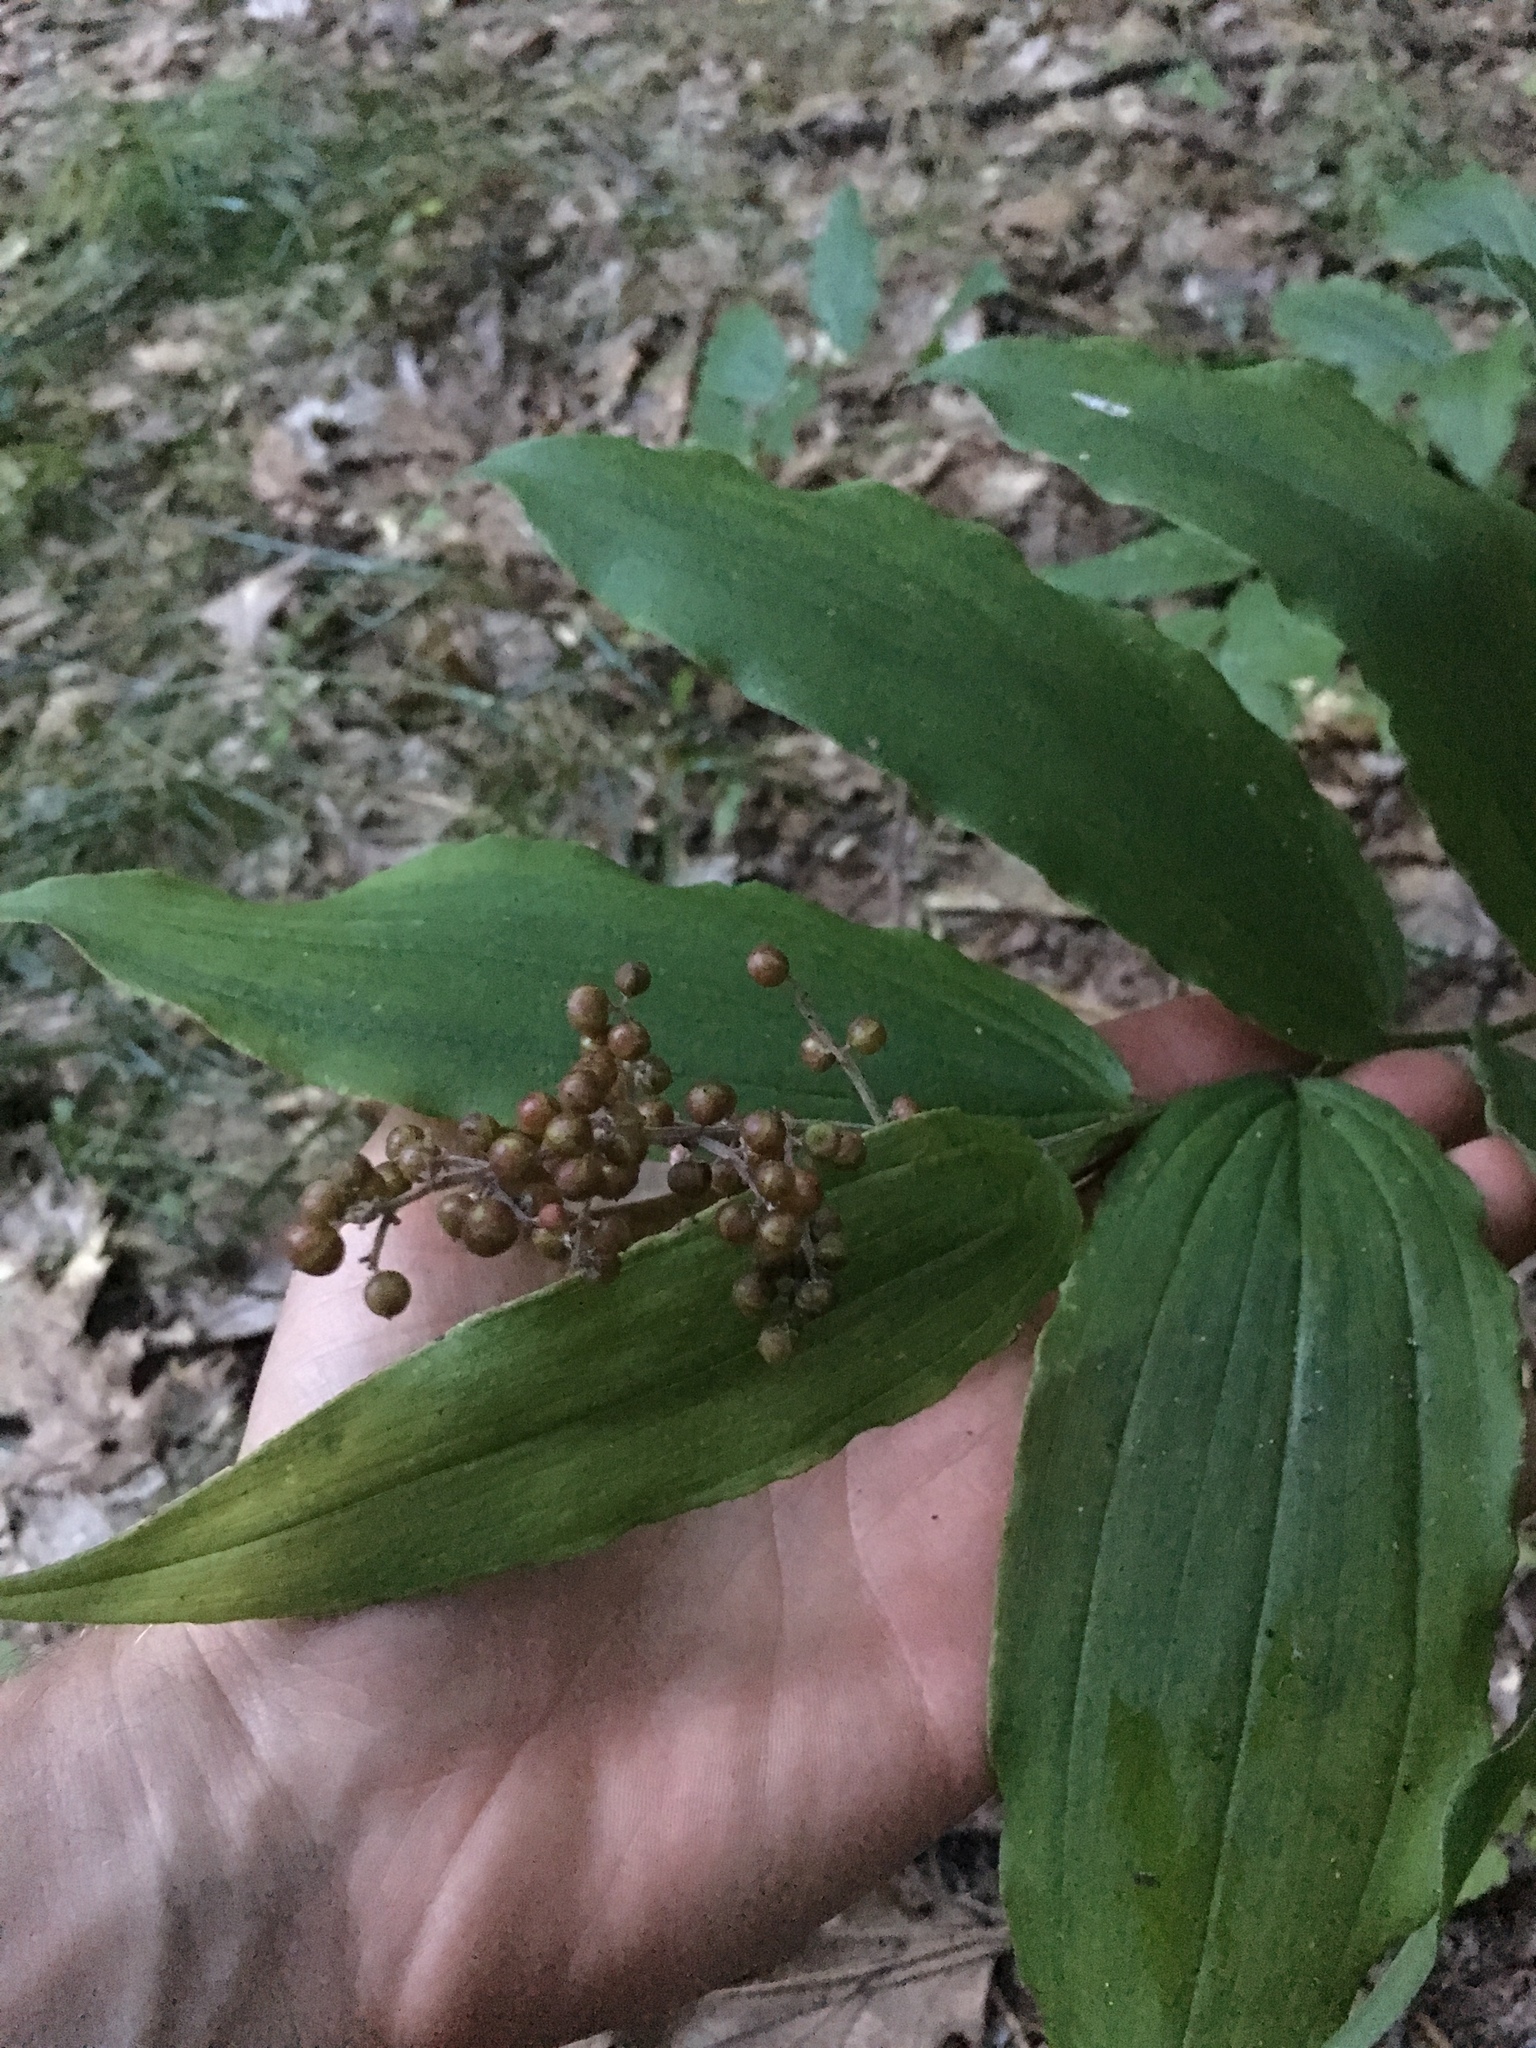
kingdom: Plantae
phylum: Tracheophyta
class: Liliopsida
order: Asparagales
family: Asparagaceae
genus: Maianthemum
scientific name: Maianthemum racemosum
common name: False spikenard
